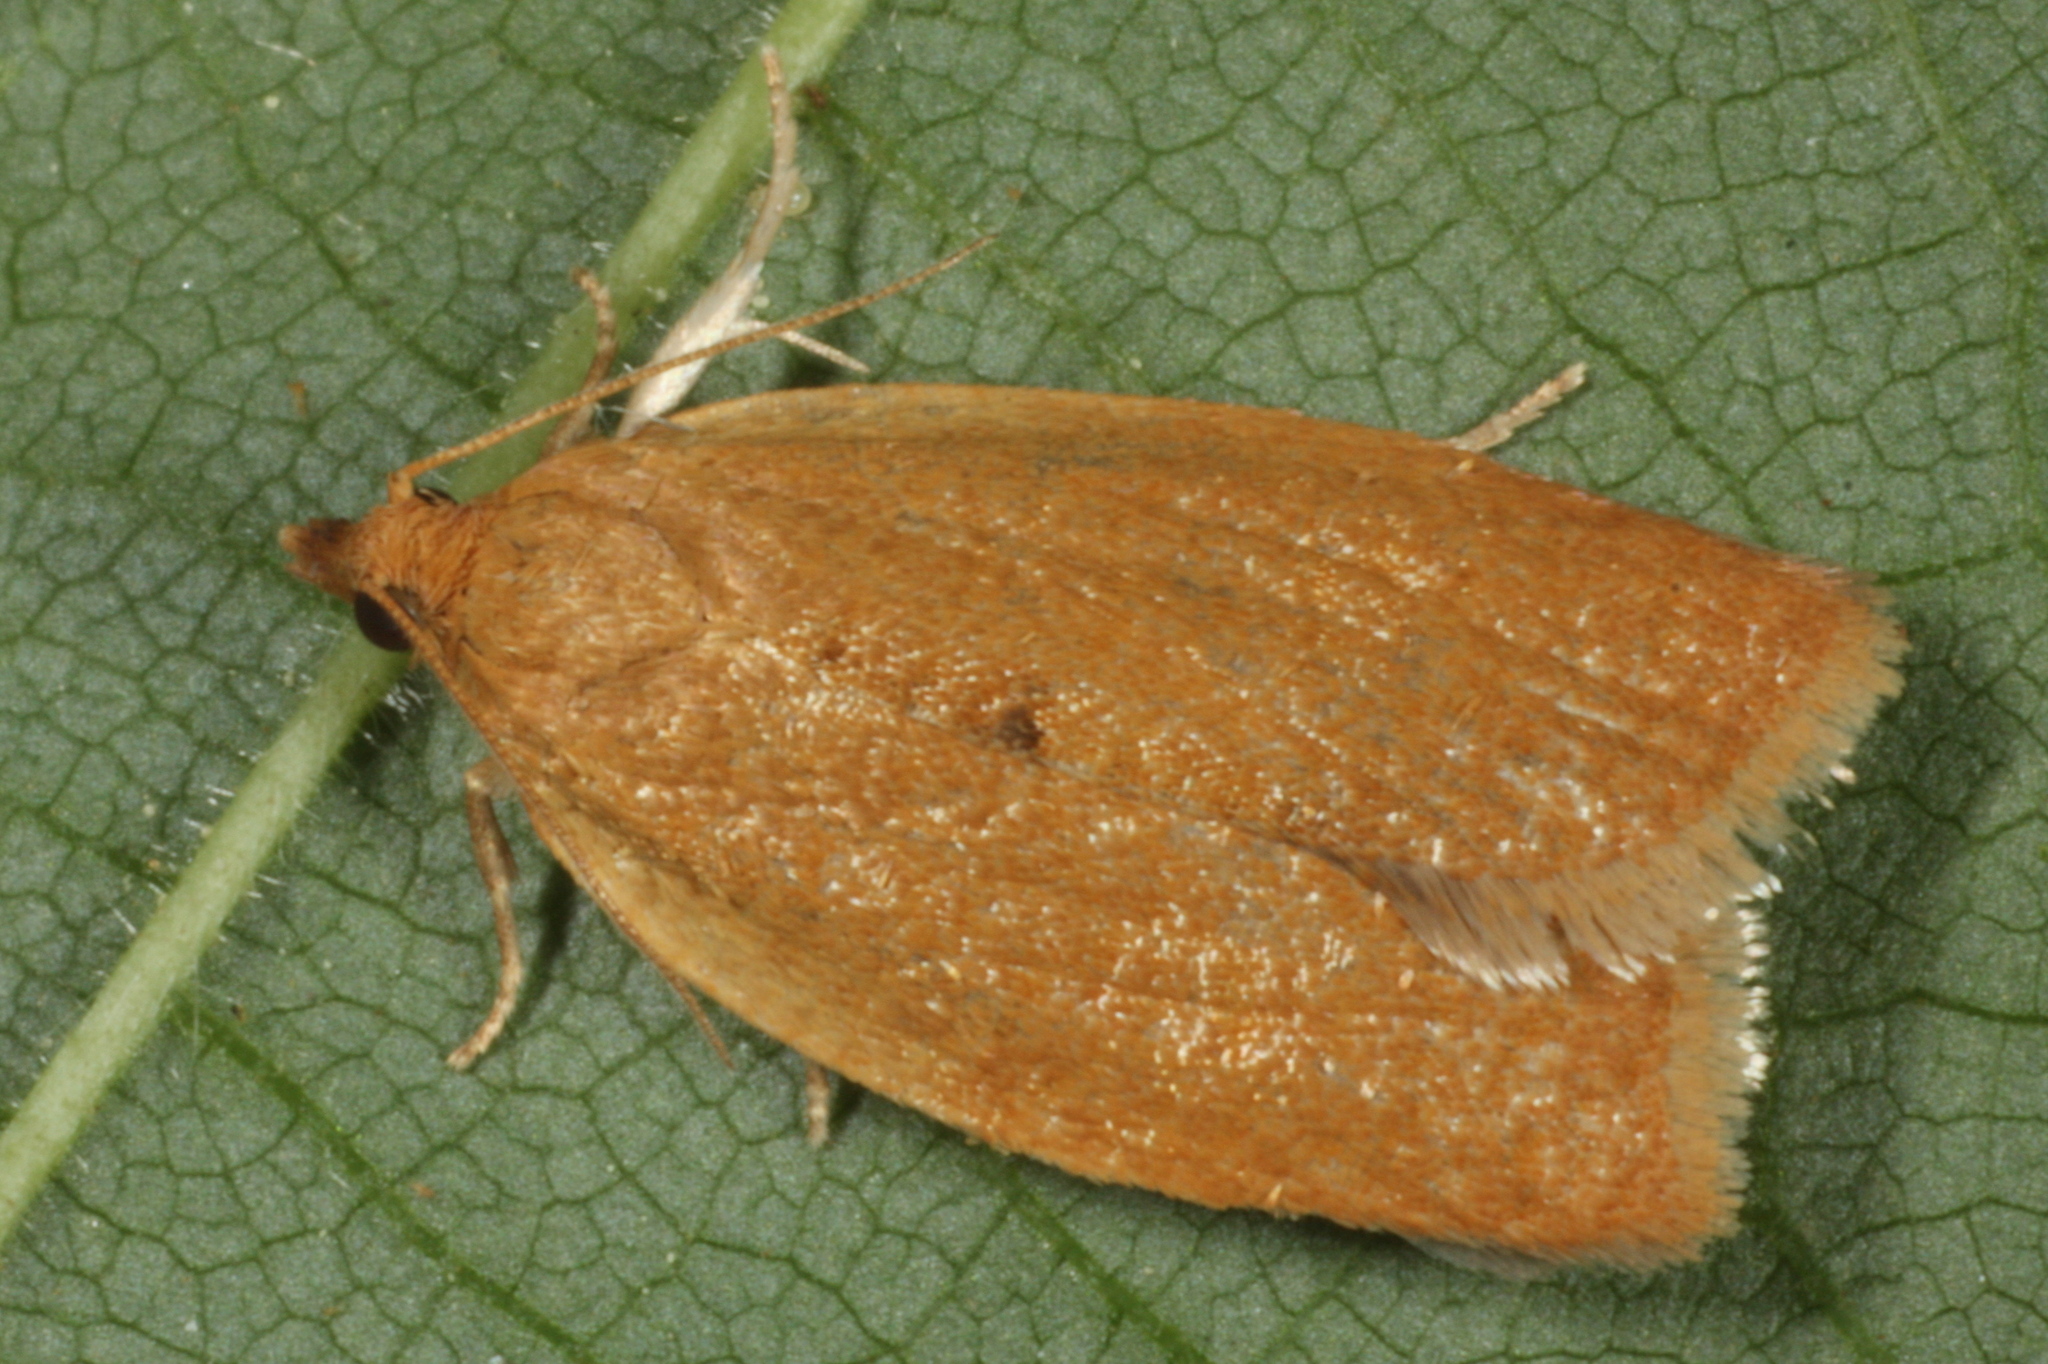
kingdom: Animalia
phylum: Arthropoda
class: Insecta
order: Lepidoptera
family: Tortricidae
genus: Clepsis
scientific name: Clepsis consimilana
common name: Privet tortrix
